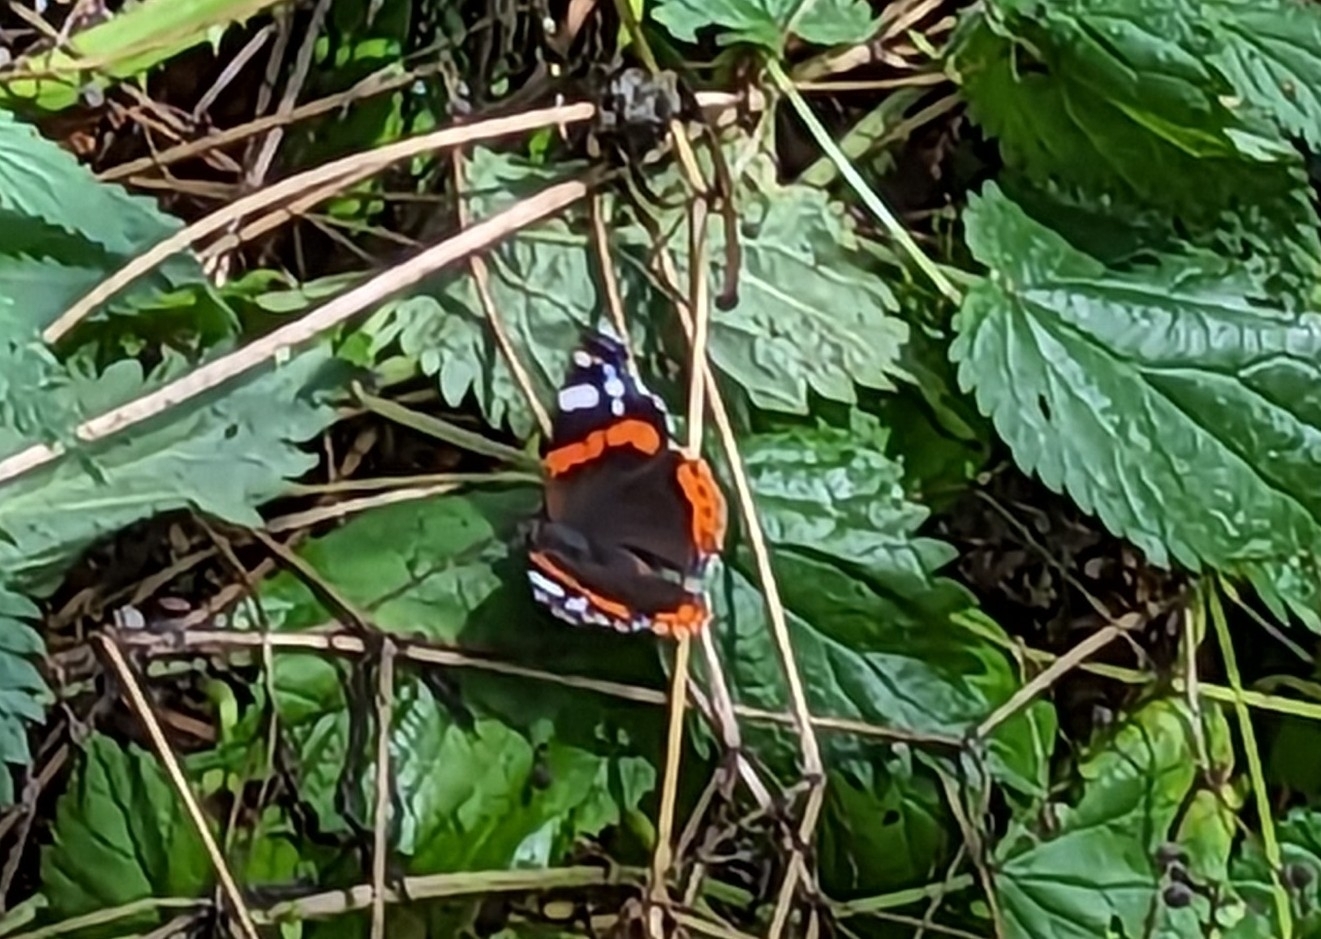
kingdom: Animalia
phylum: Arthropoda
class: Insecta
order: Lepidoptera
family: Nymphalidae
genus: Vanessa
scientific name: Vanessa atalanta
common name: Red admiral
